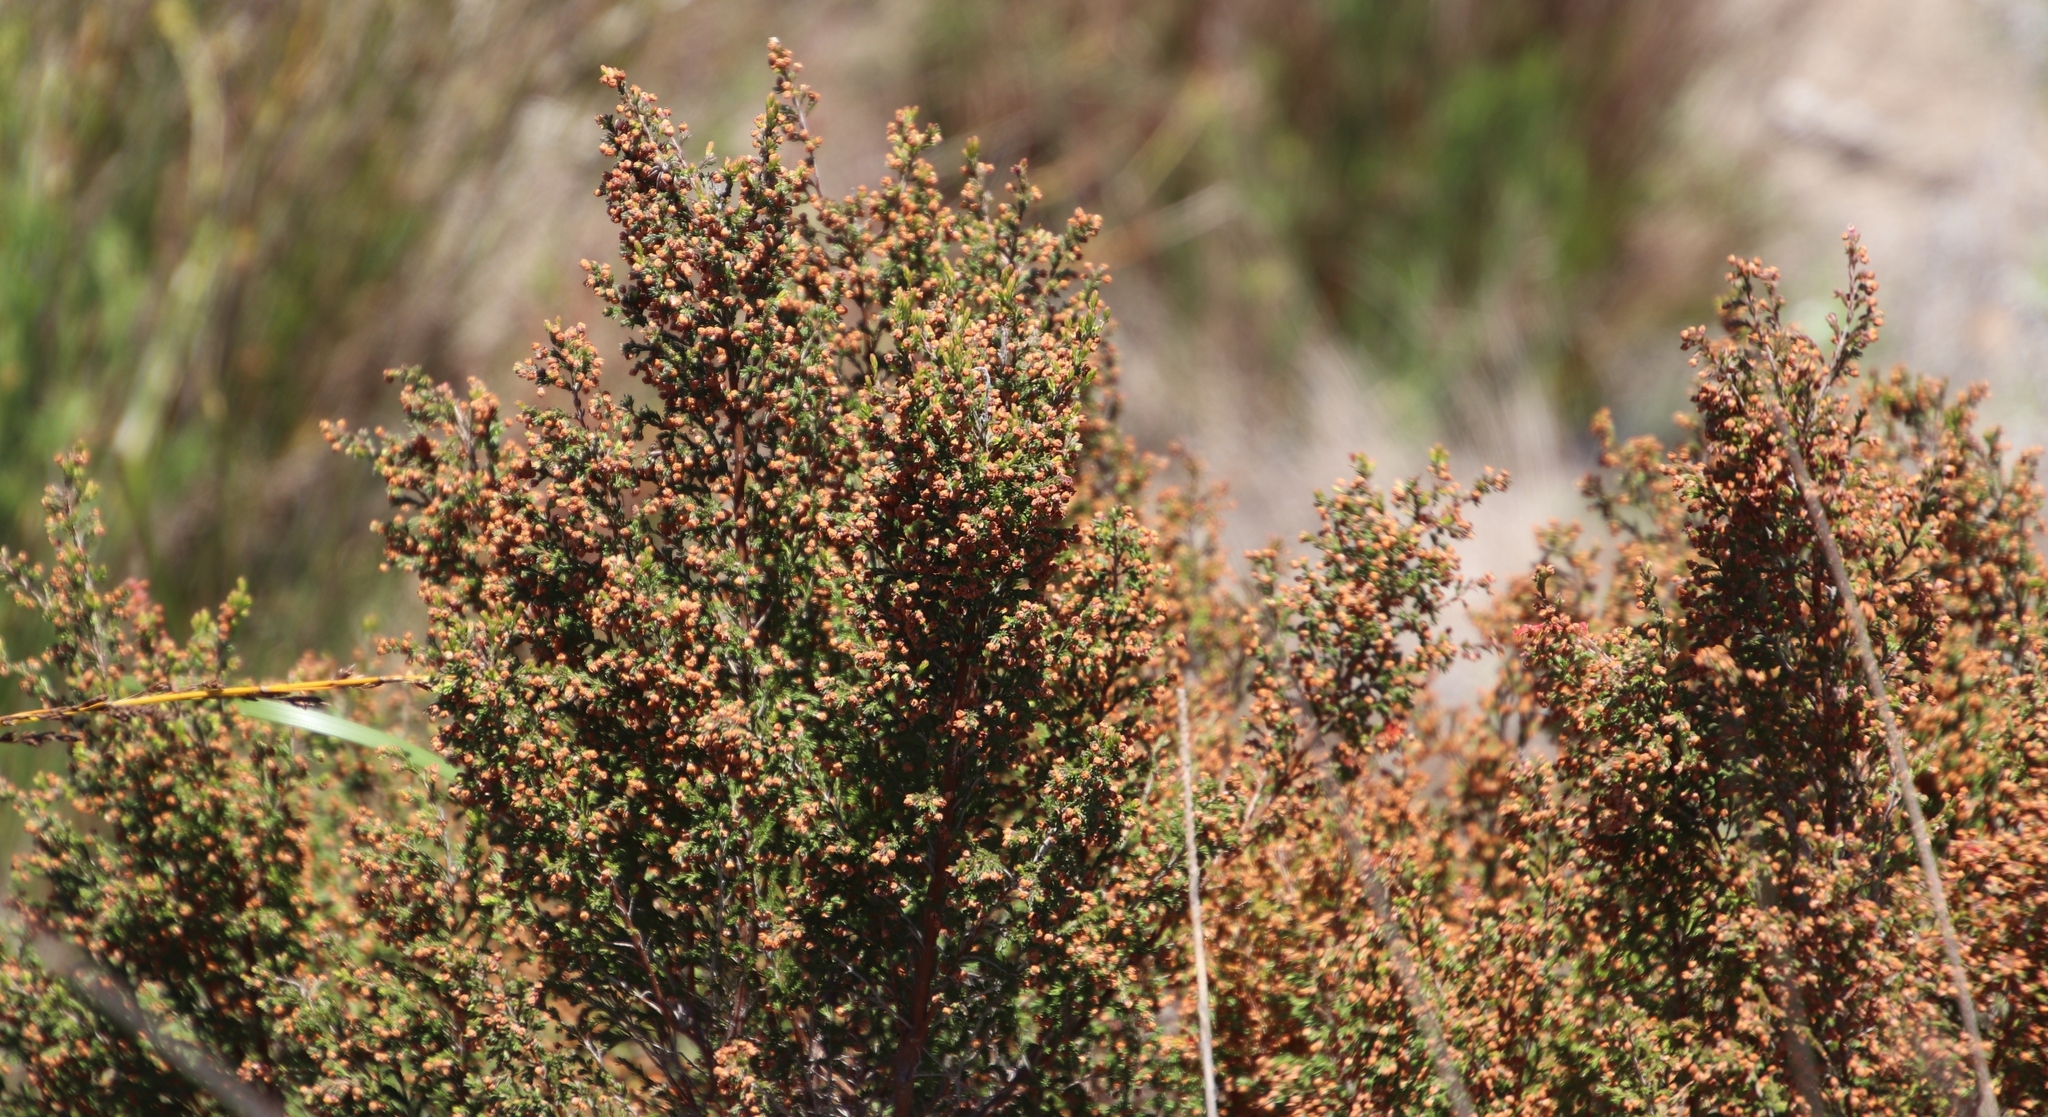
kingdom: Plantae
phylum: Tracheophyta
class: Magnoliopsida
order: Ericales
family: Ericaceae
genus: Erica
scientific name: Erica mauritanica
